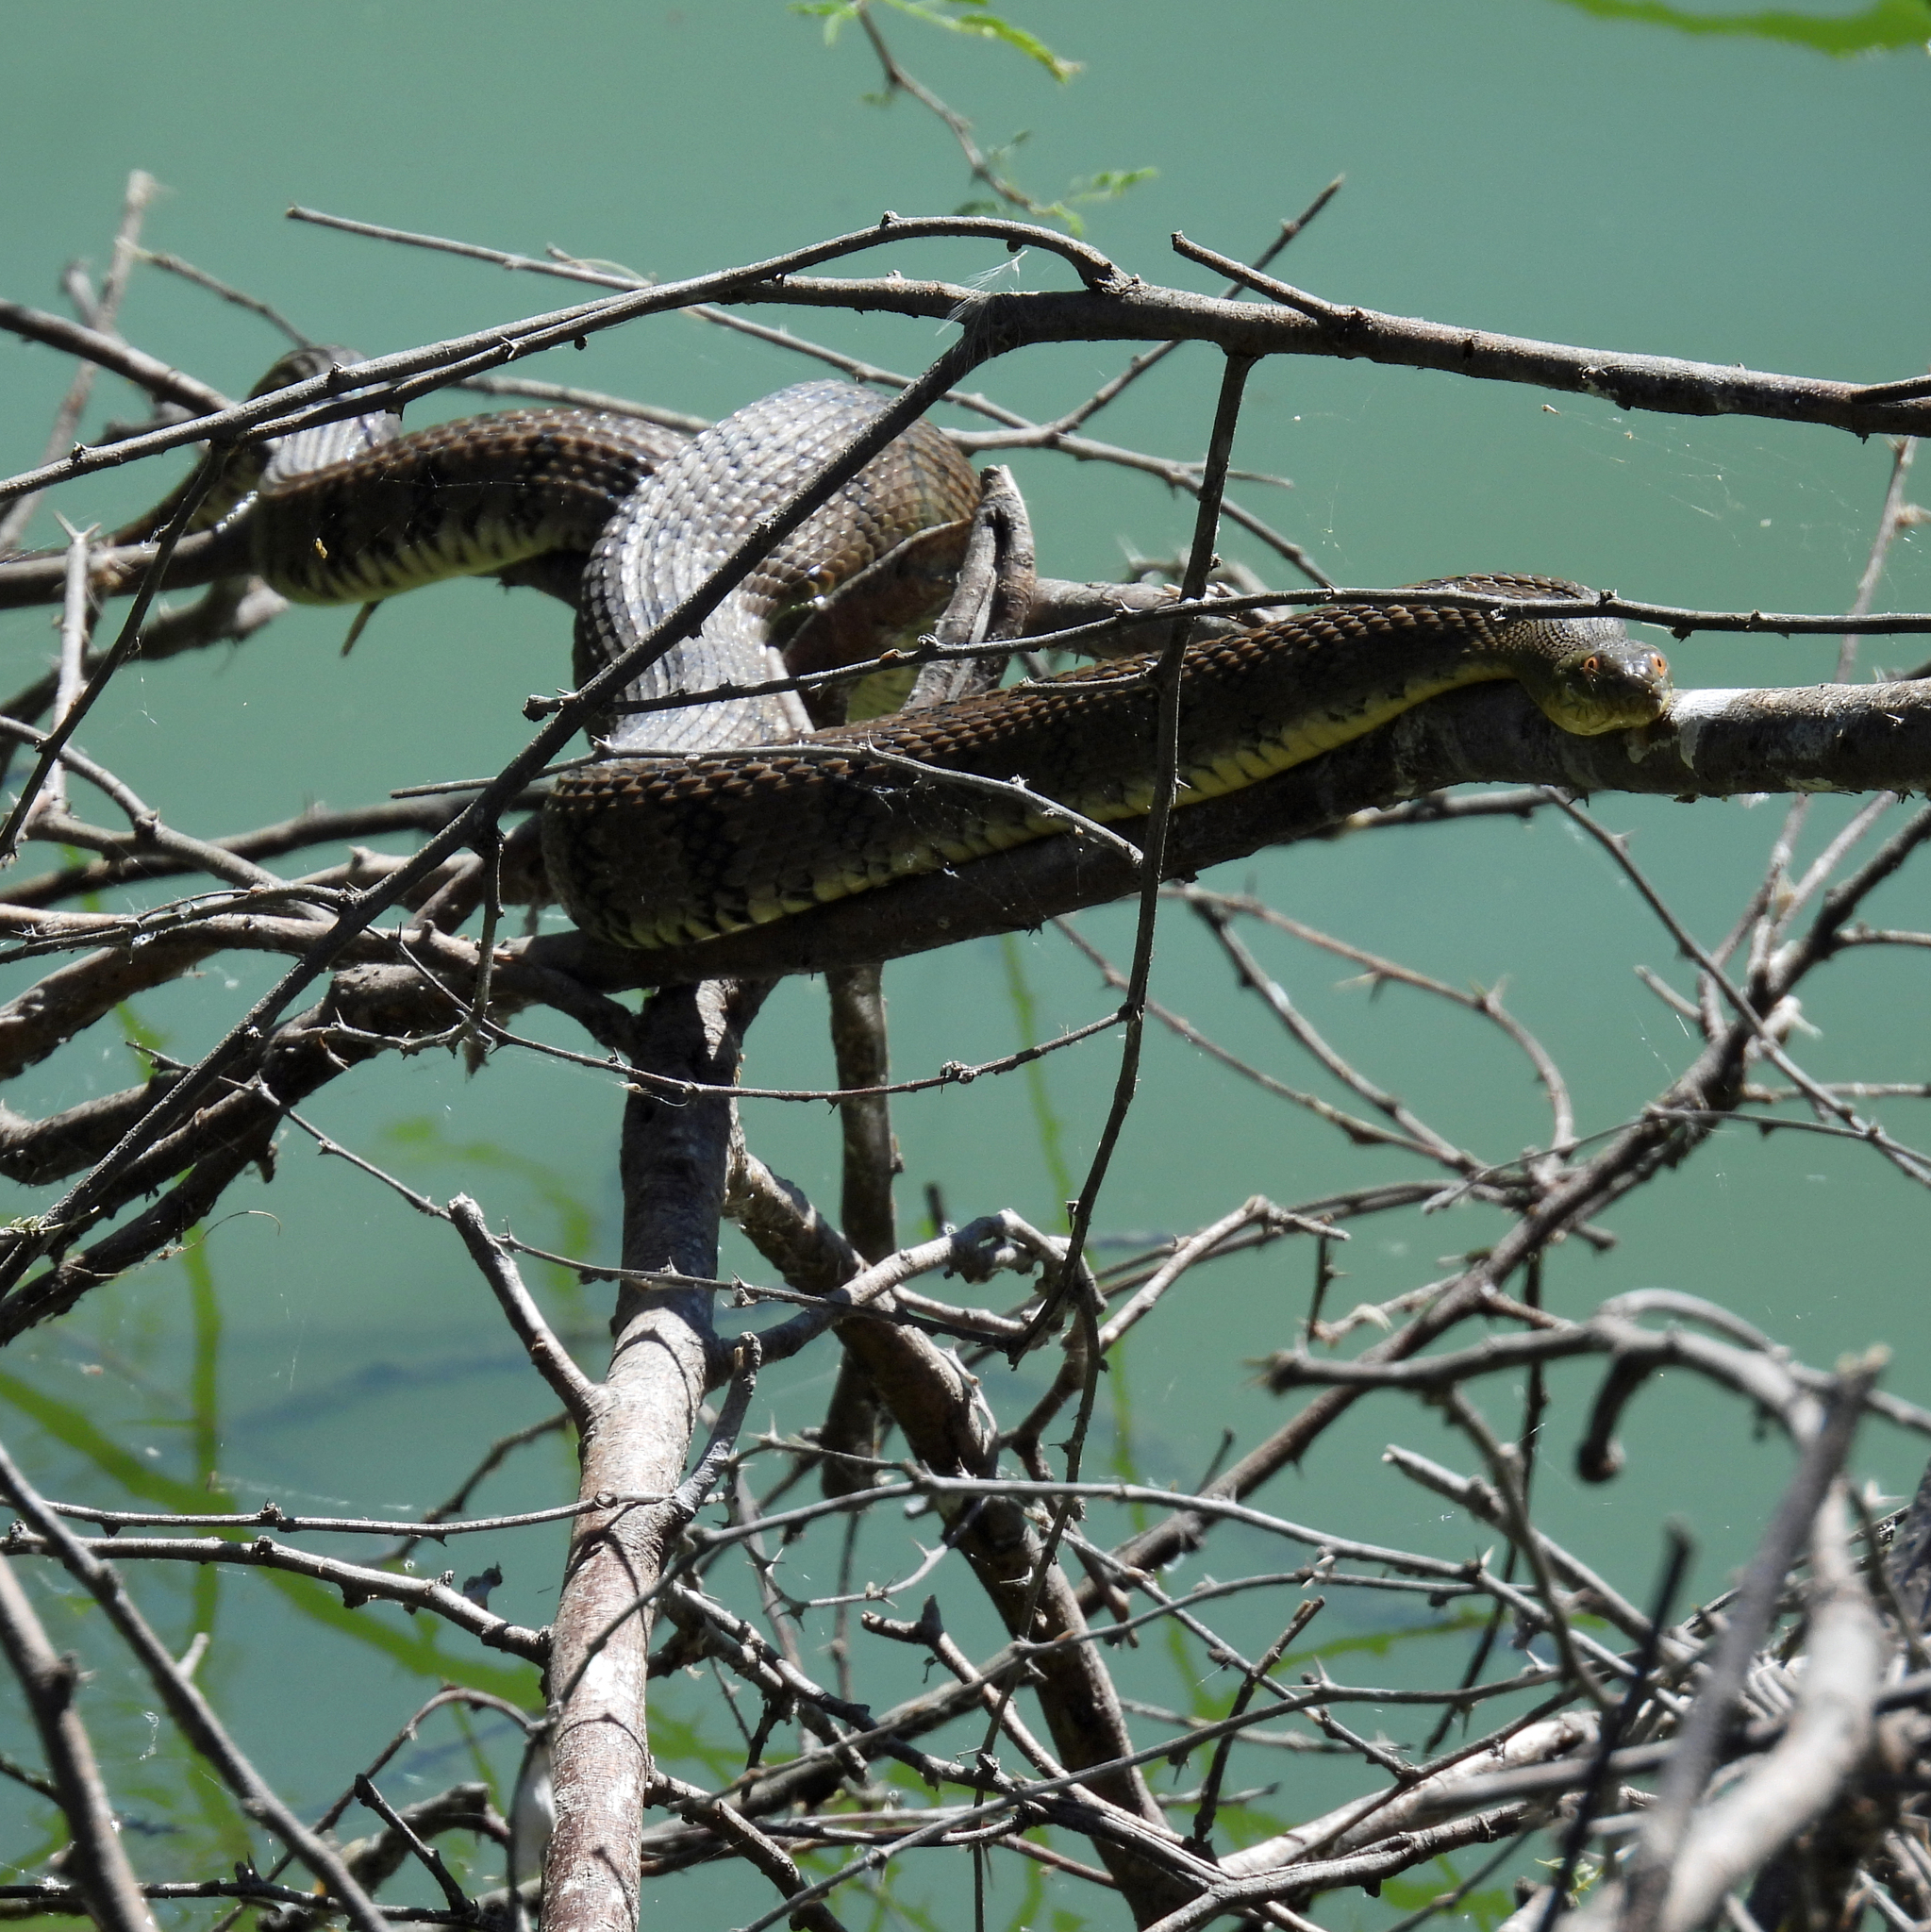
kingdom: Animalia
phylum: Chordata
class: Squamata
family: Colubridae
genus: Nerodia
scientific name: Nerodia rhombifer
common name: Diamondback water snake
